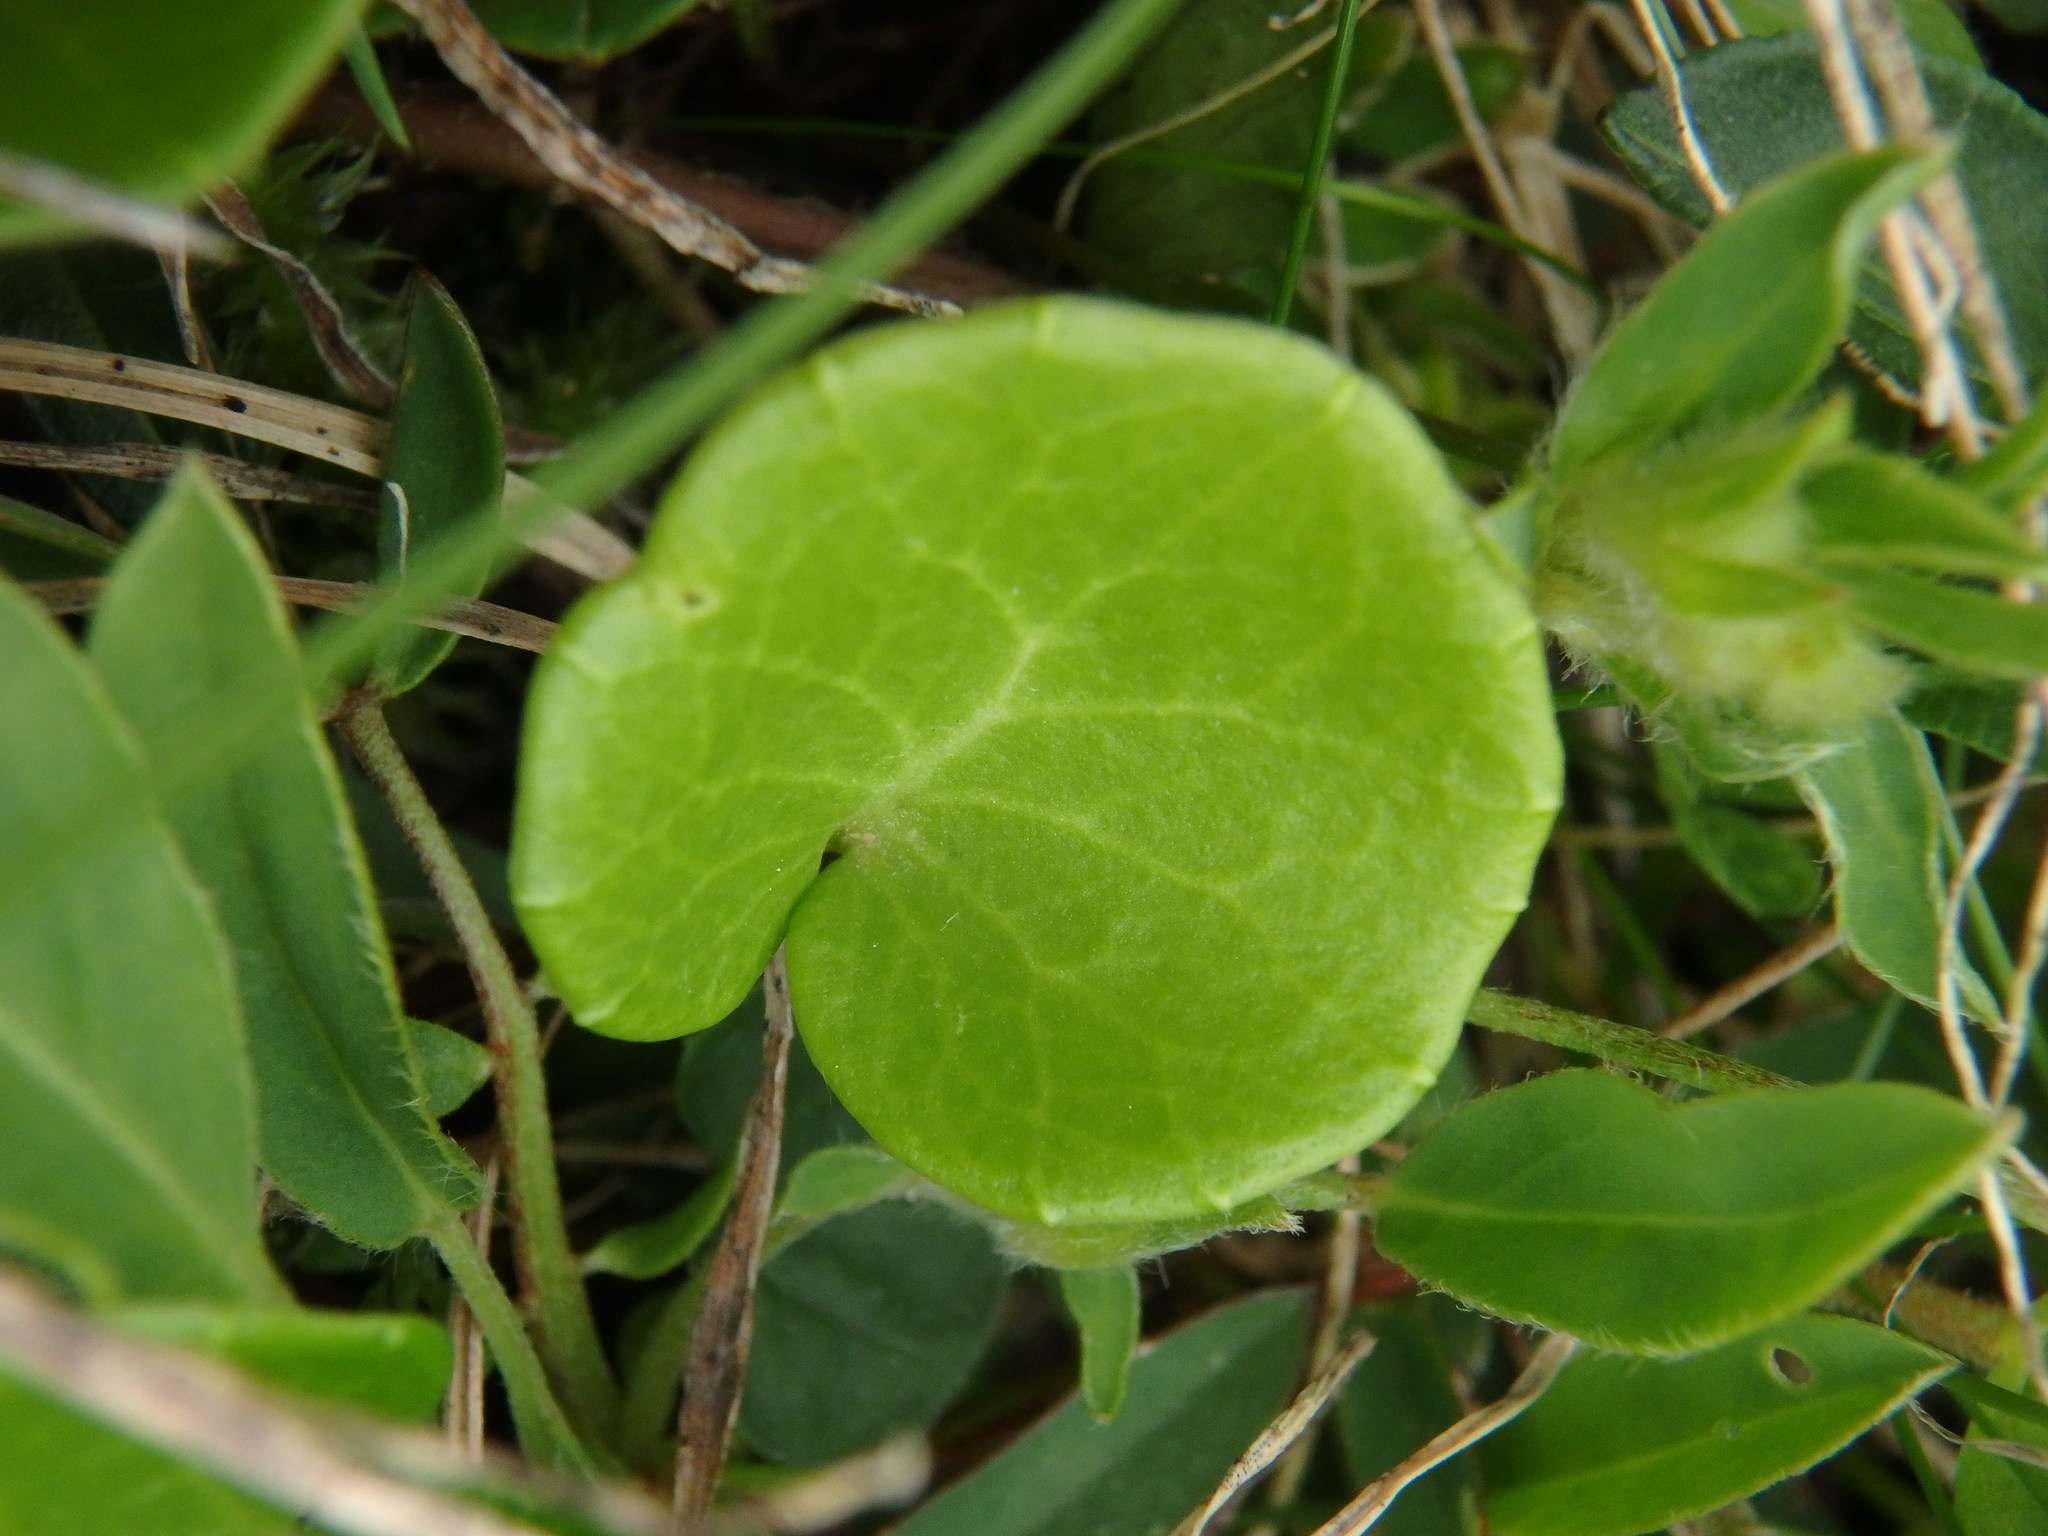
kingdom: Plantae
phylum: Tracheophyta
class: Magnoliopsida
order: Asterales
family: Asteraceae
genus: Homogyne
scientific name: Homogyne alpina
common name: Purple colt's-foot
